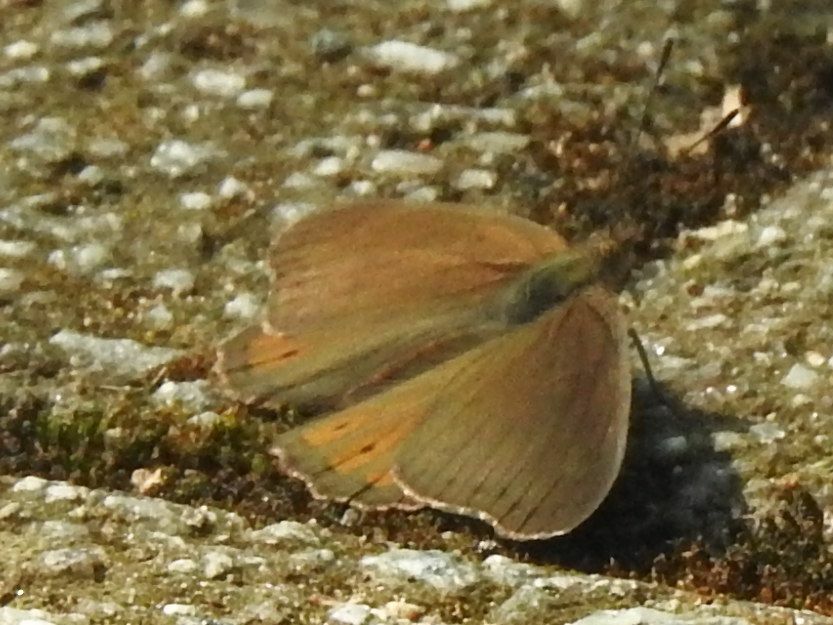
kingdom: Animalia
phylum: Arthropoda
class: Insecta
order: Lepidoptera
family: Nymphalidae
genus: Asterope
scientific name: Asterope boisduvali
